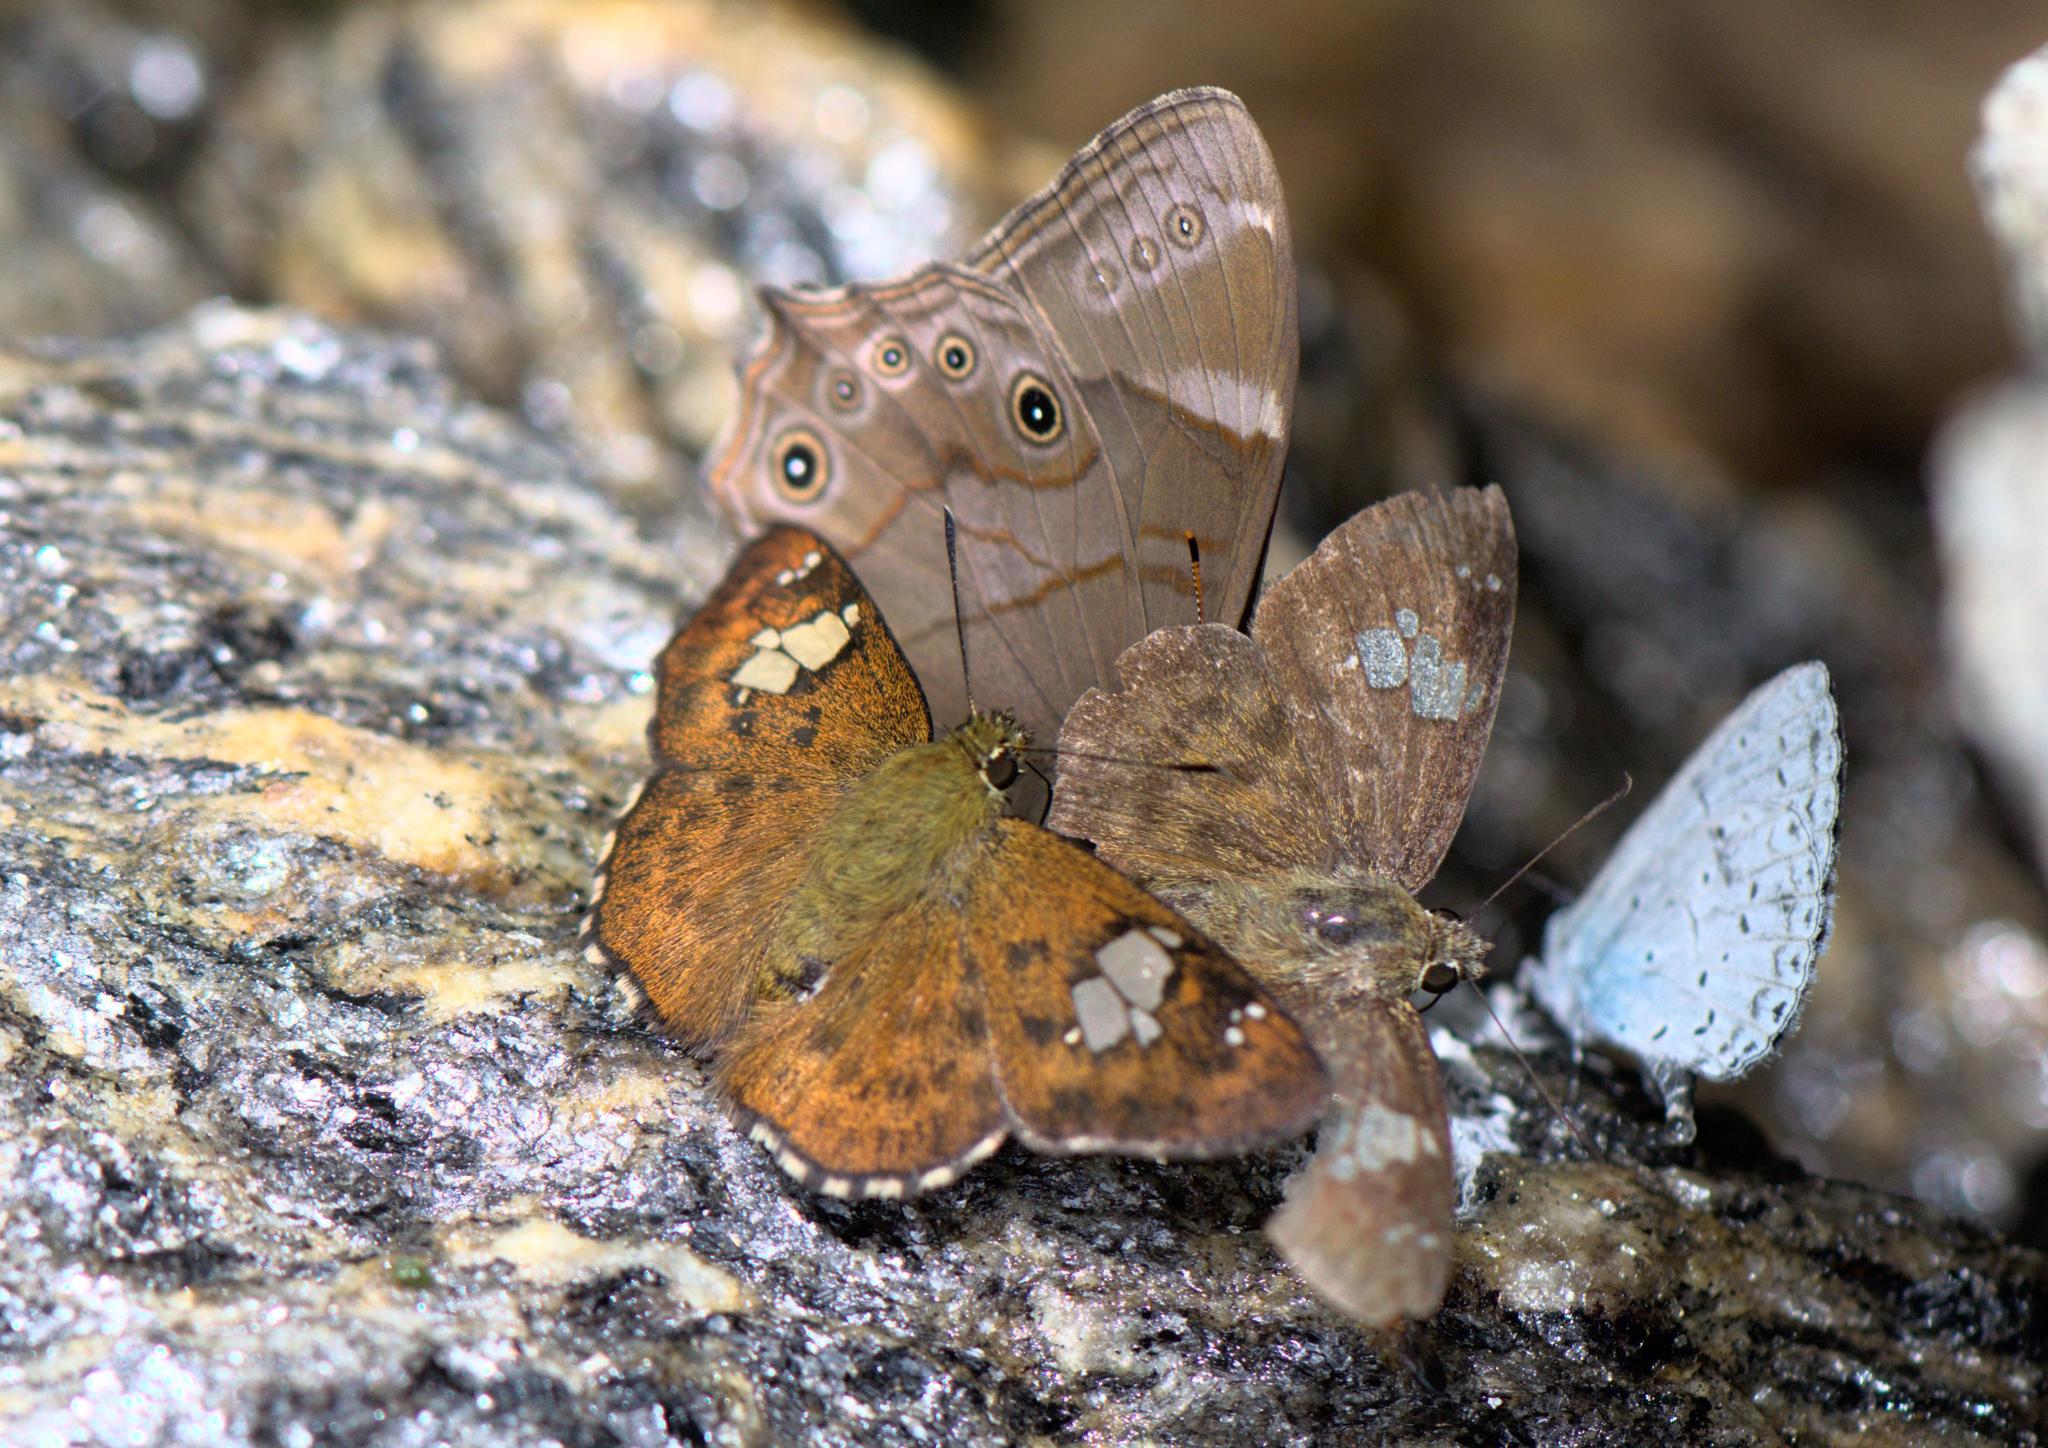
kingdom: Animalia
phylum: Arthropoda
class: Insecta
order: Lepidoptera
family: Hesperiidae
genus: Pseudocoladenia
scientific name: Pseudocoladenia fabia
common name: Fulvous pied flat
